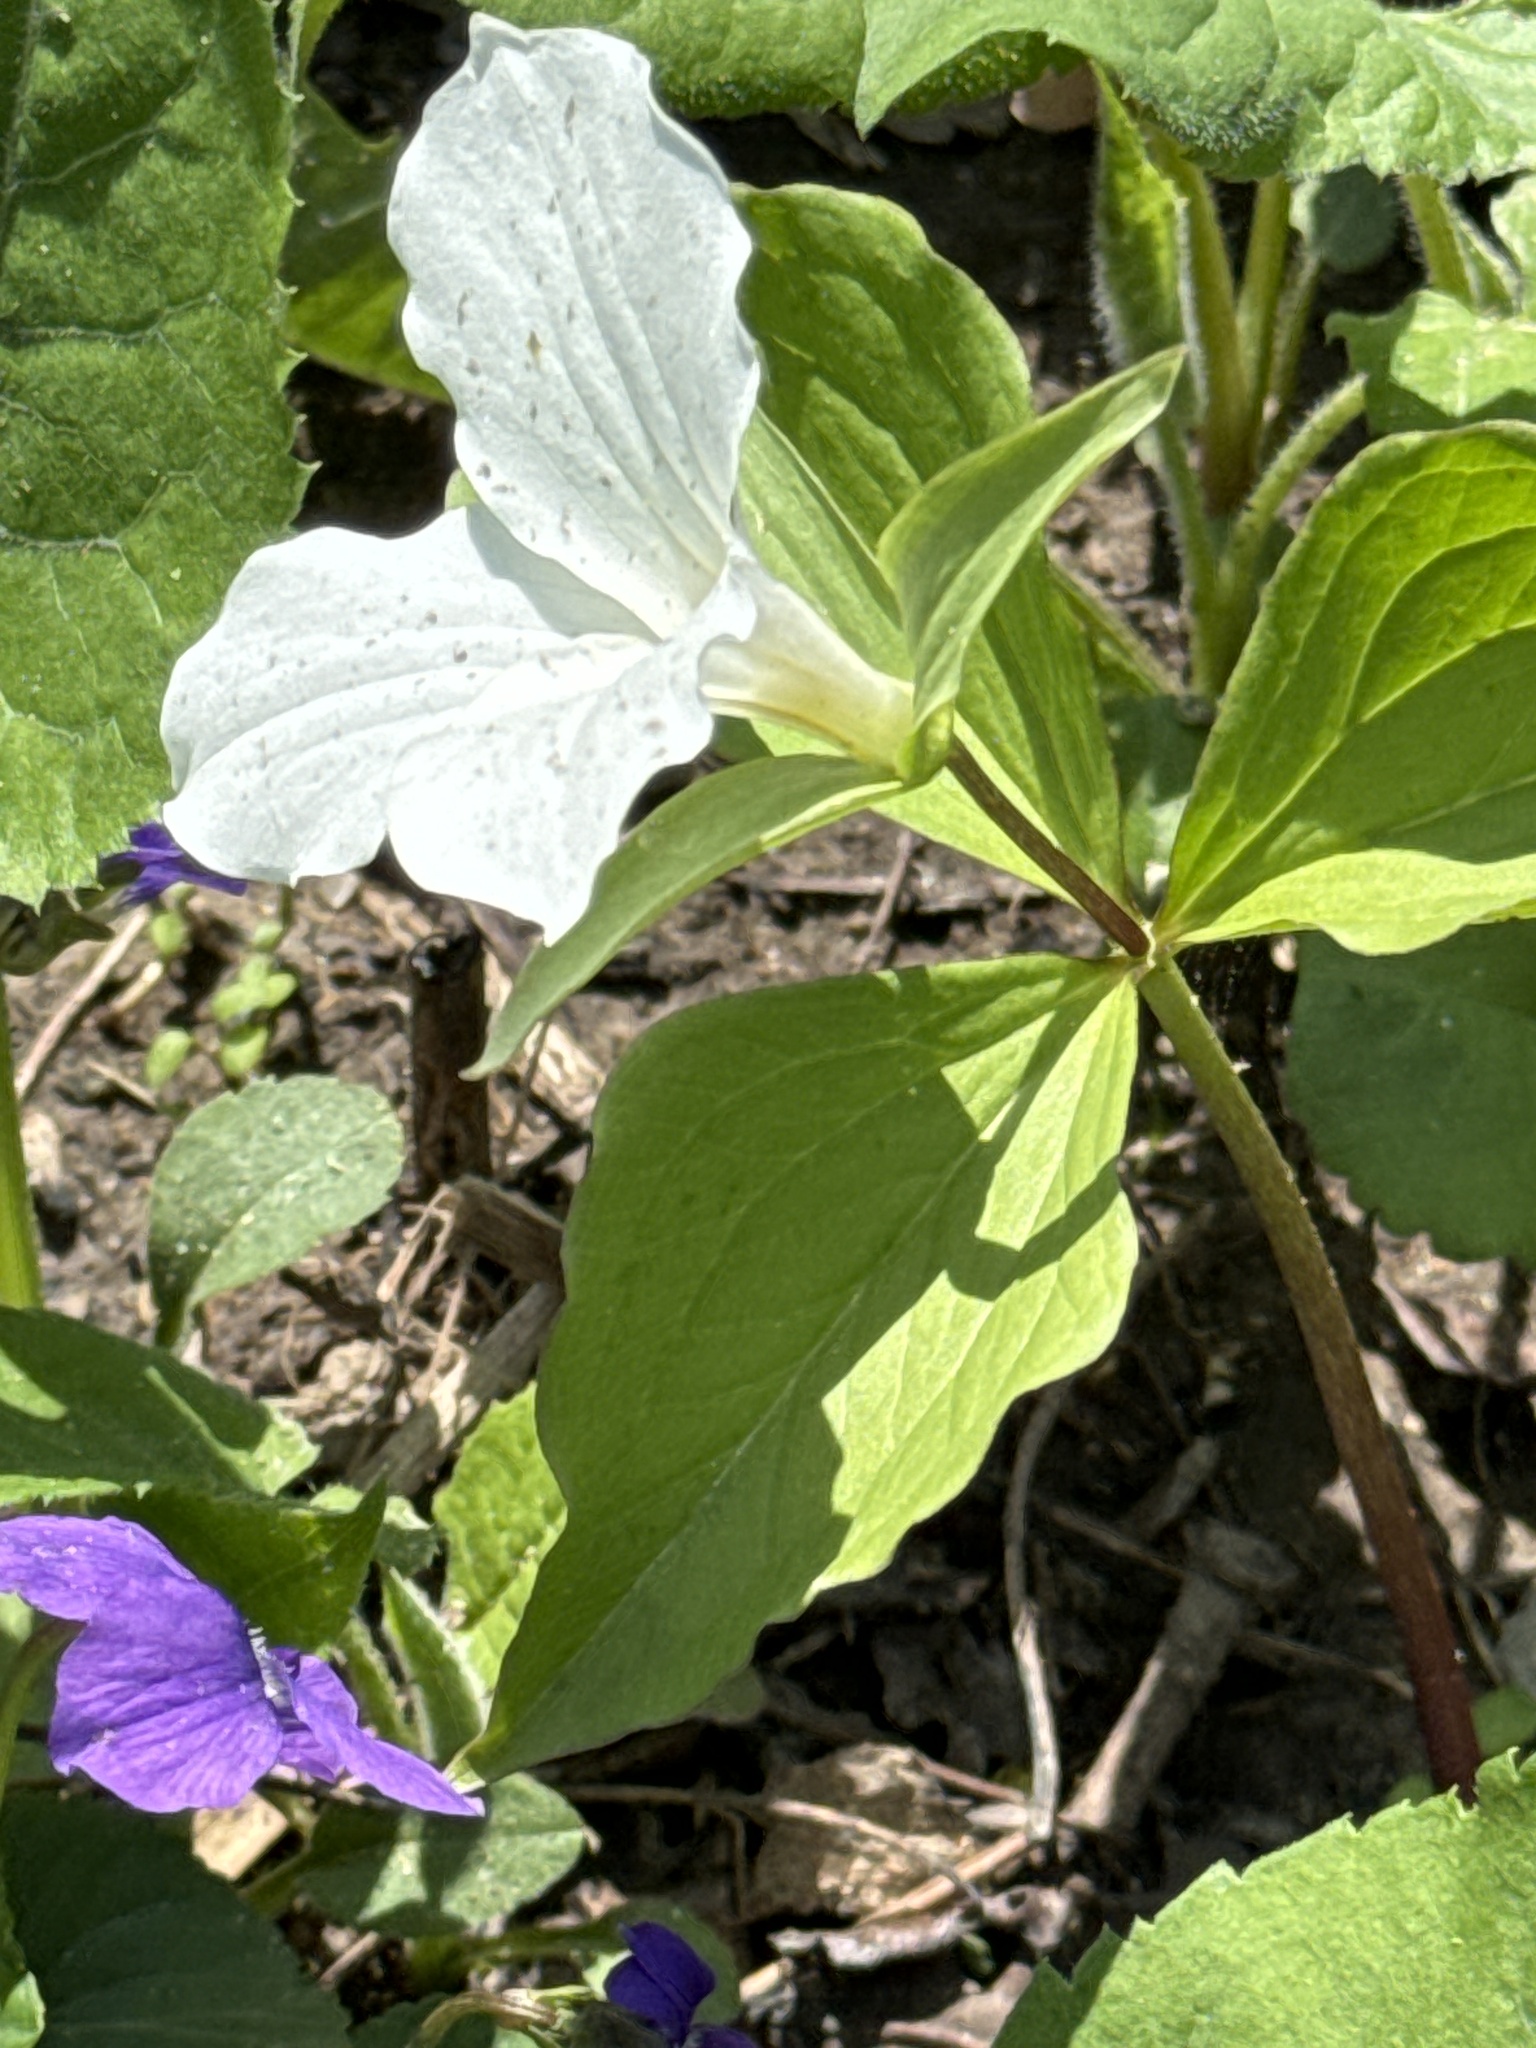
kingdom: Plantae
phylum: Tracheophyta
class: Liliopsida
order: Liliales
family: Melanthiaceae
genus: Trillium
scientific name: Trillium grandiflorum
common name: Great white trillium
